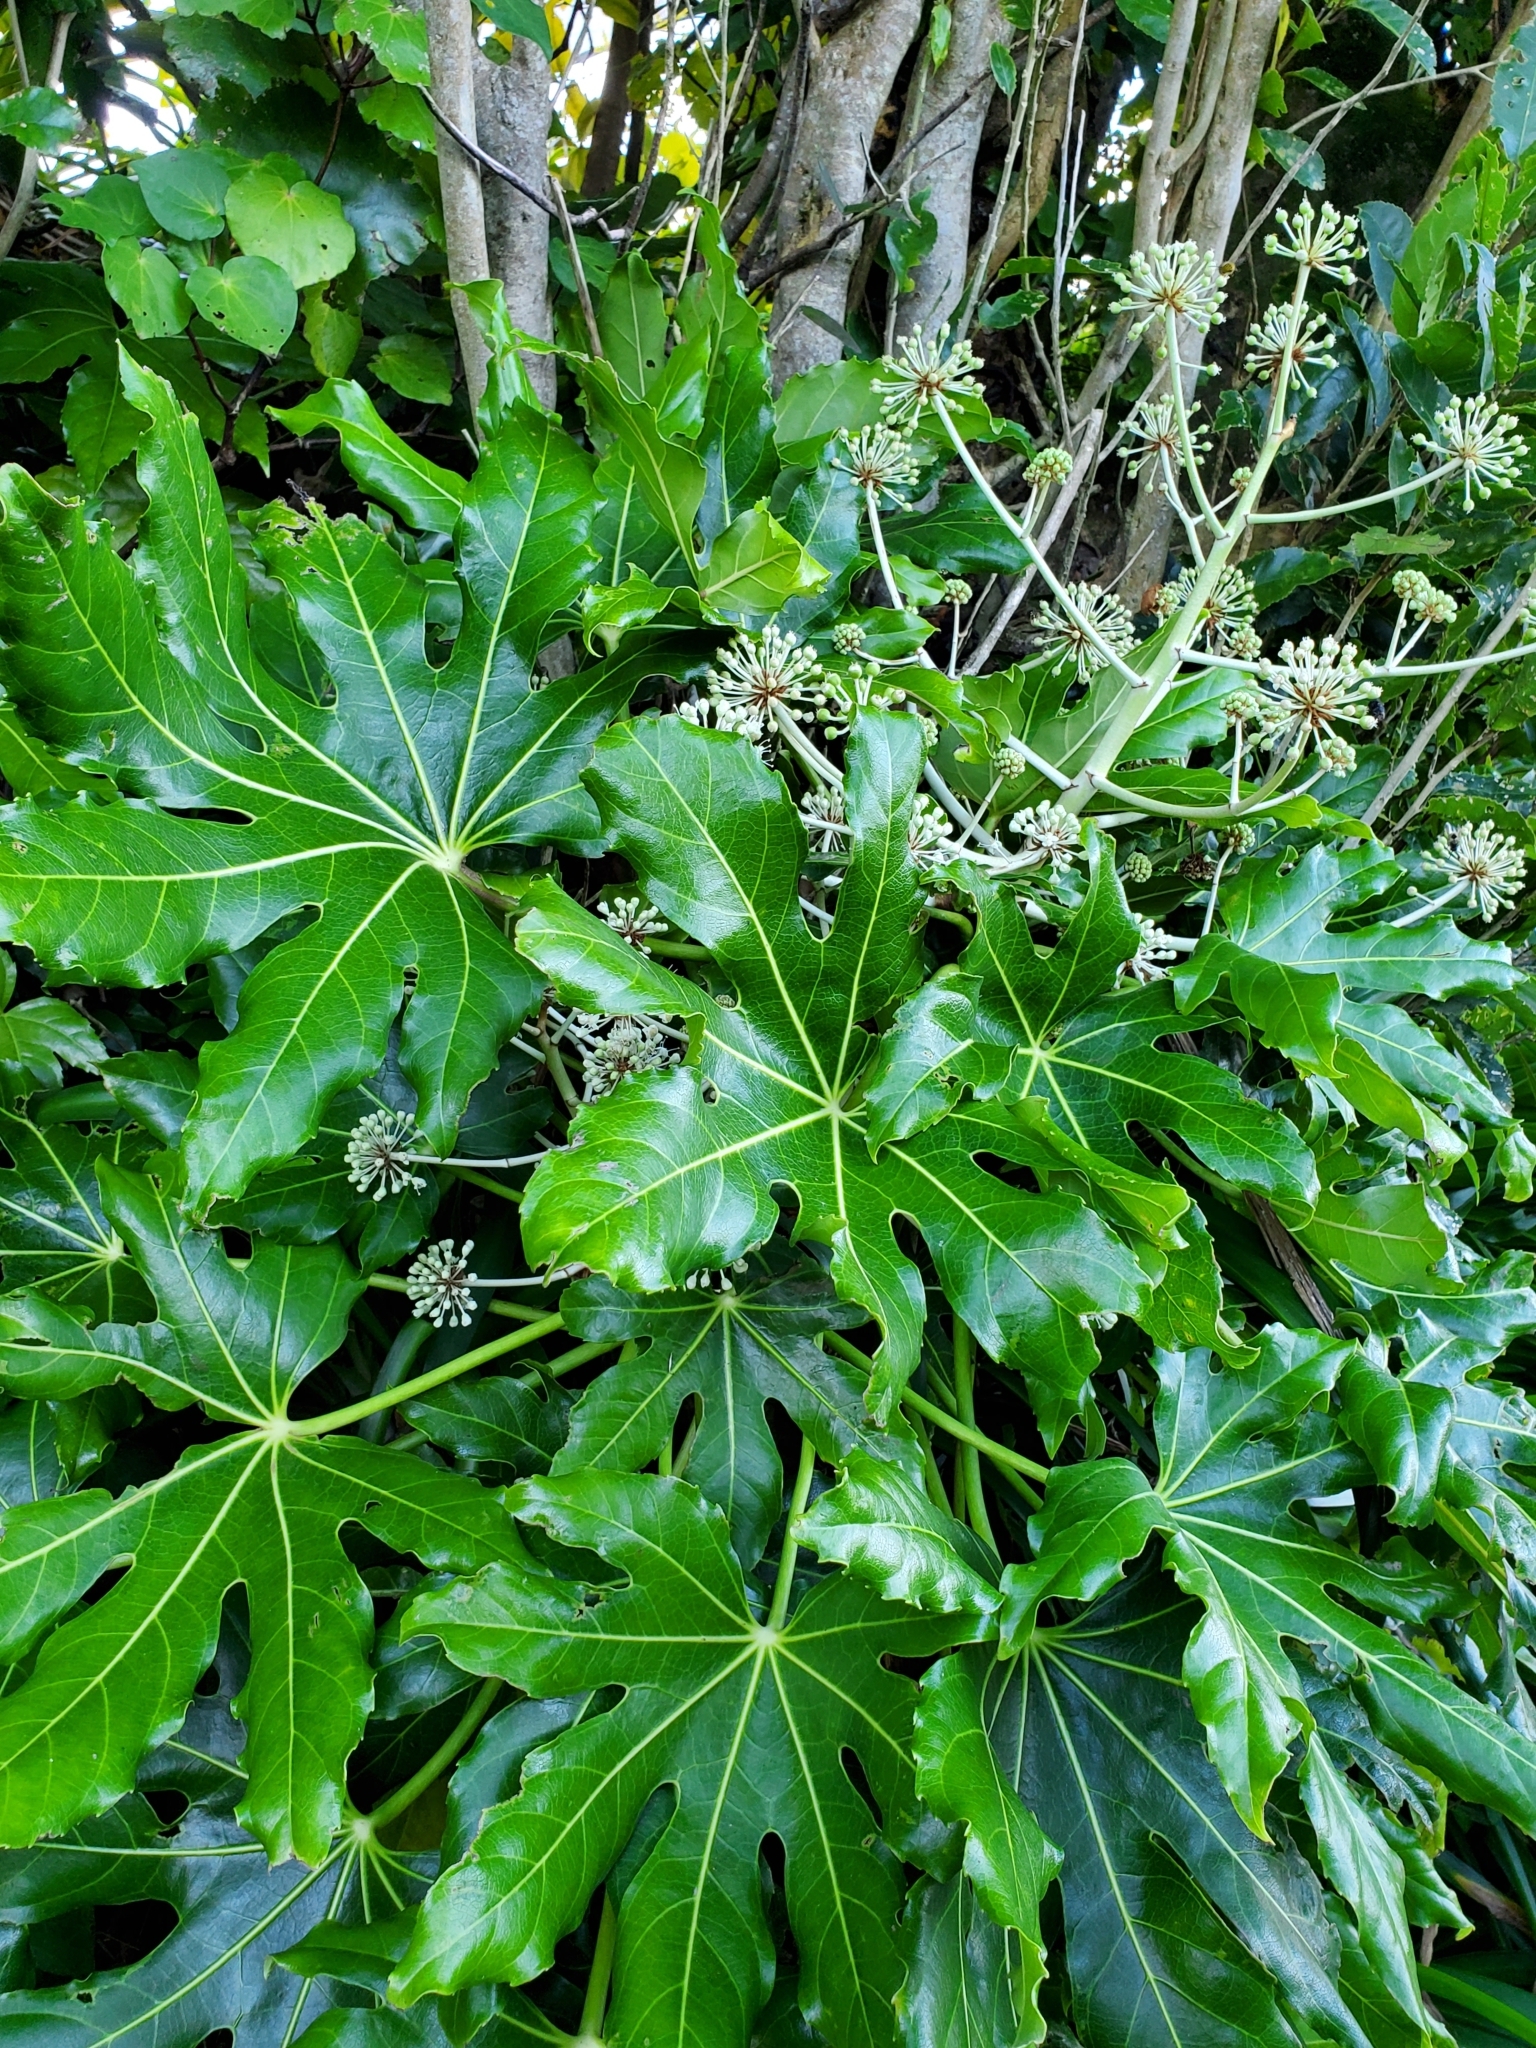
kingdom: Plantae
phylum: Tracheophyta
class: Magnoliopsida
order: Apiales
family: Araliaceae
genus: Fatsia
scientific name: Fatsia japonica
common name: Fatsia
